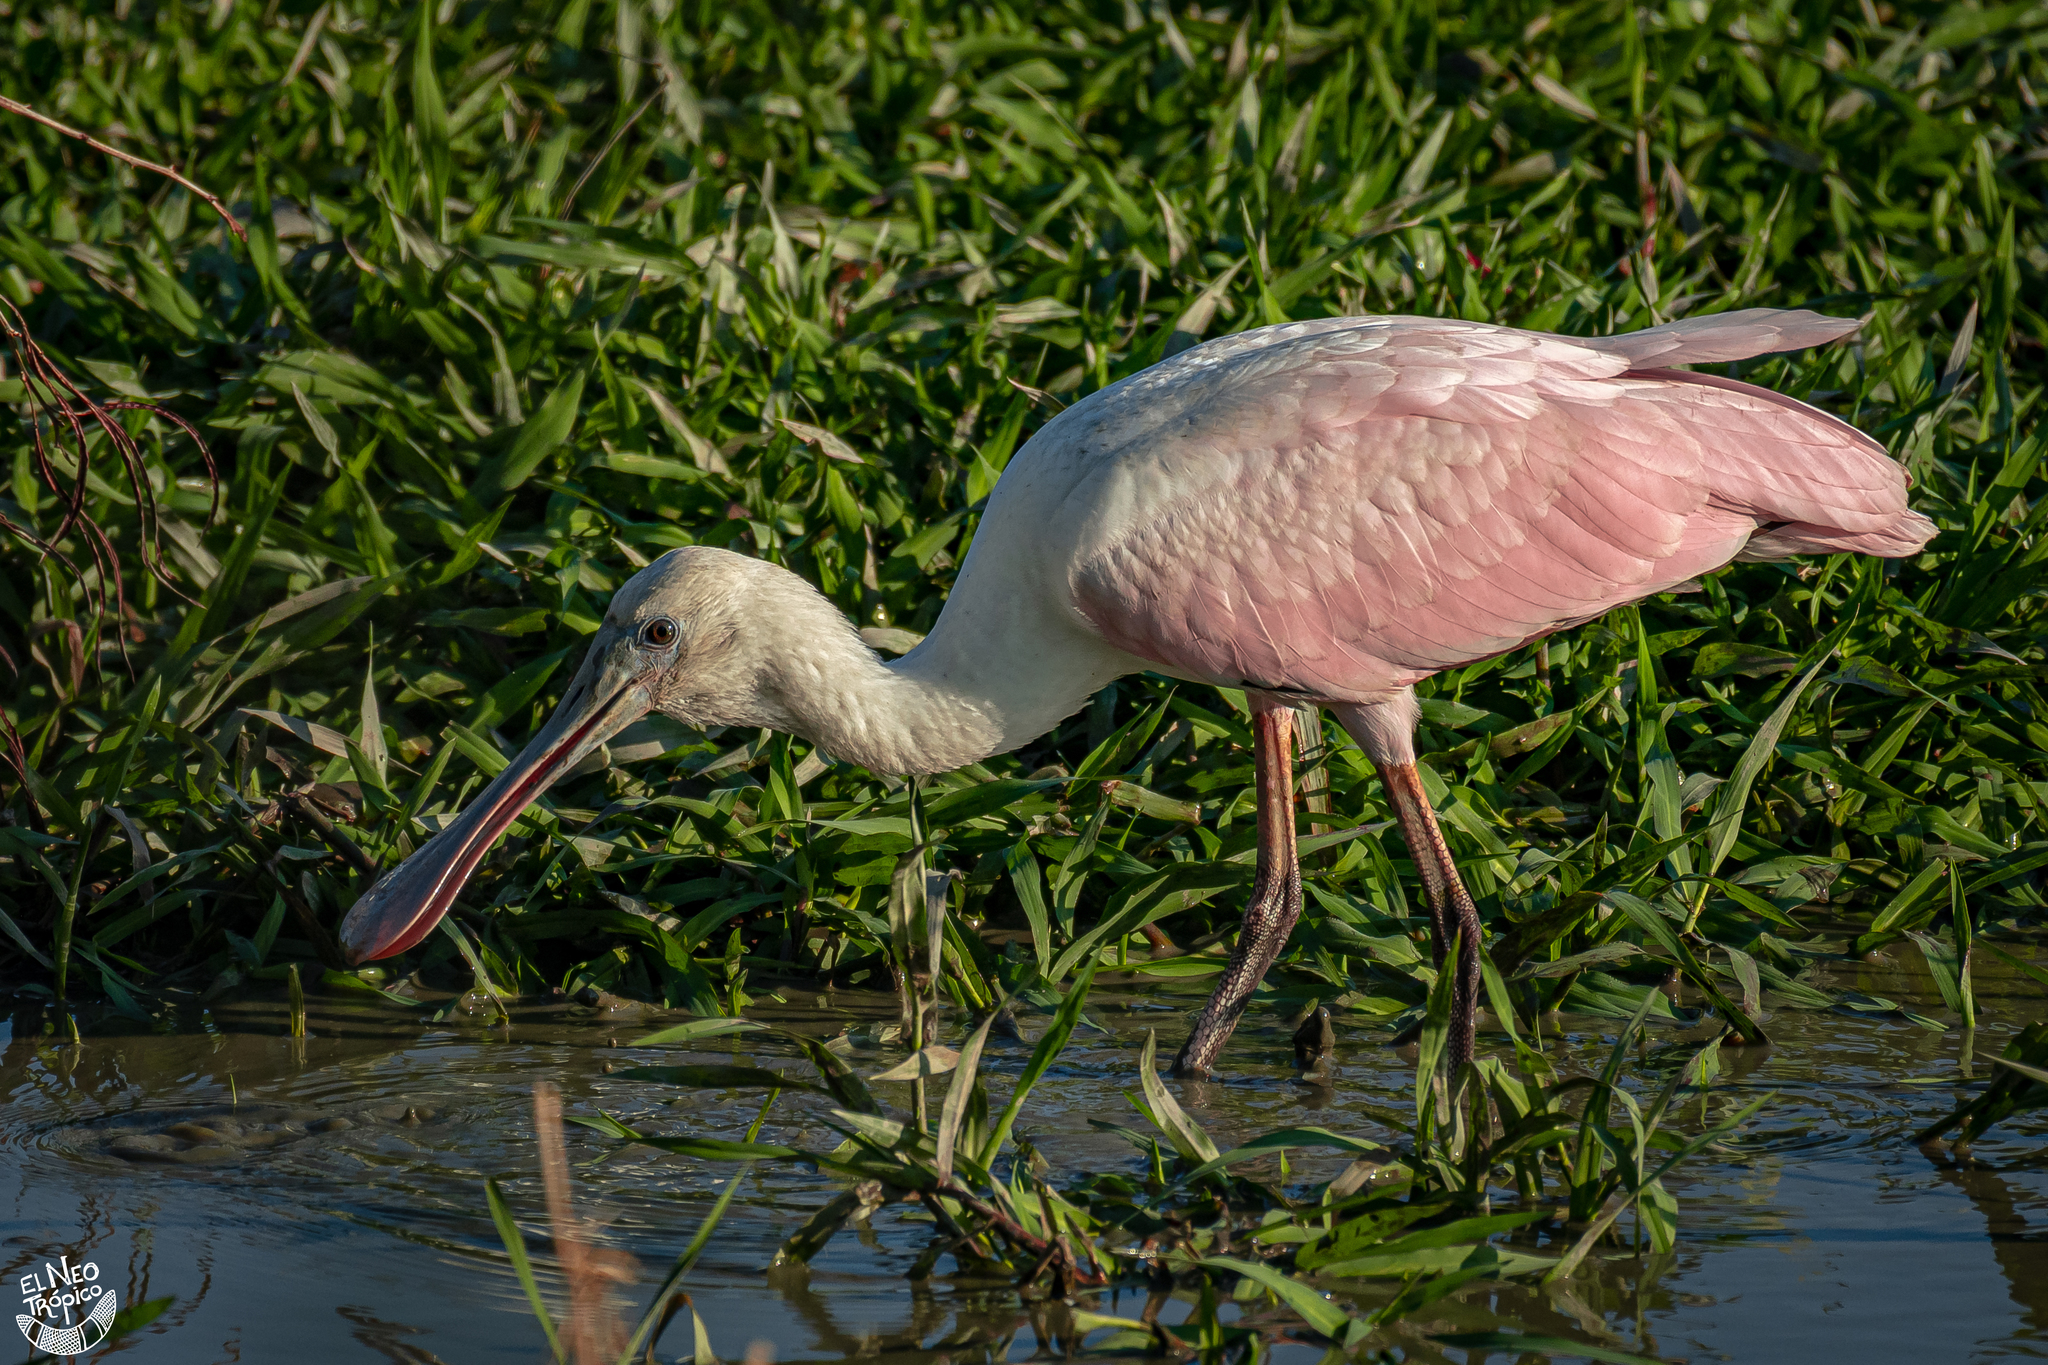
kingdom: Animalia
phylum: Chordata
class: Aves
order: Pelecaniformes
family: Threskiornithidae
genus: Platalea
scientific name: Platalea ajaja
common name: Roseate spoonbill
